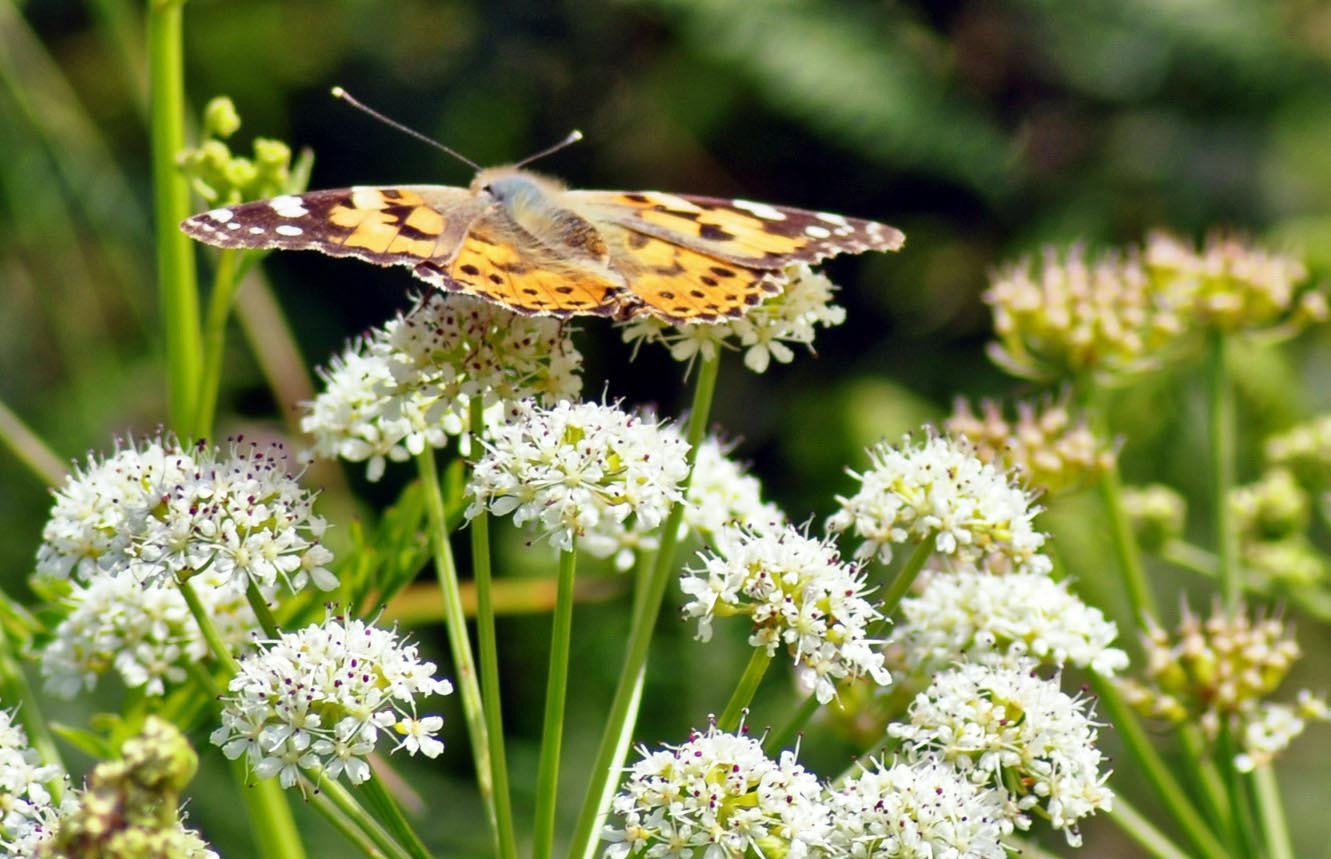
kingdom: Animalia
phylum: Arthropoda
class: Insecta
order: Lepidoptera
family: Nymphalidae
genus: Vanessa
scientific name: Vanessa cardui
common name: Painted lady
